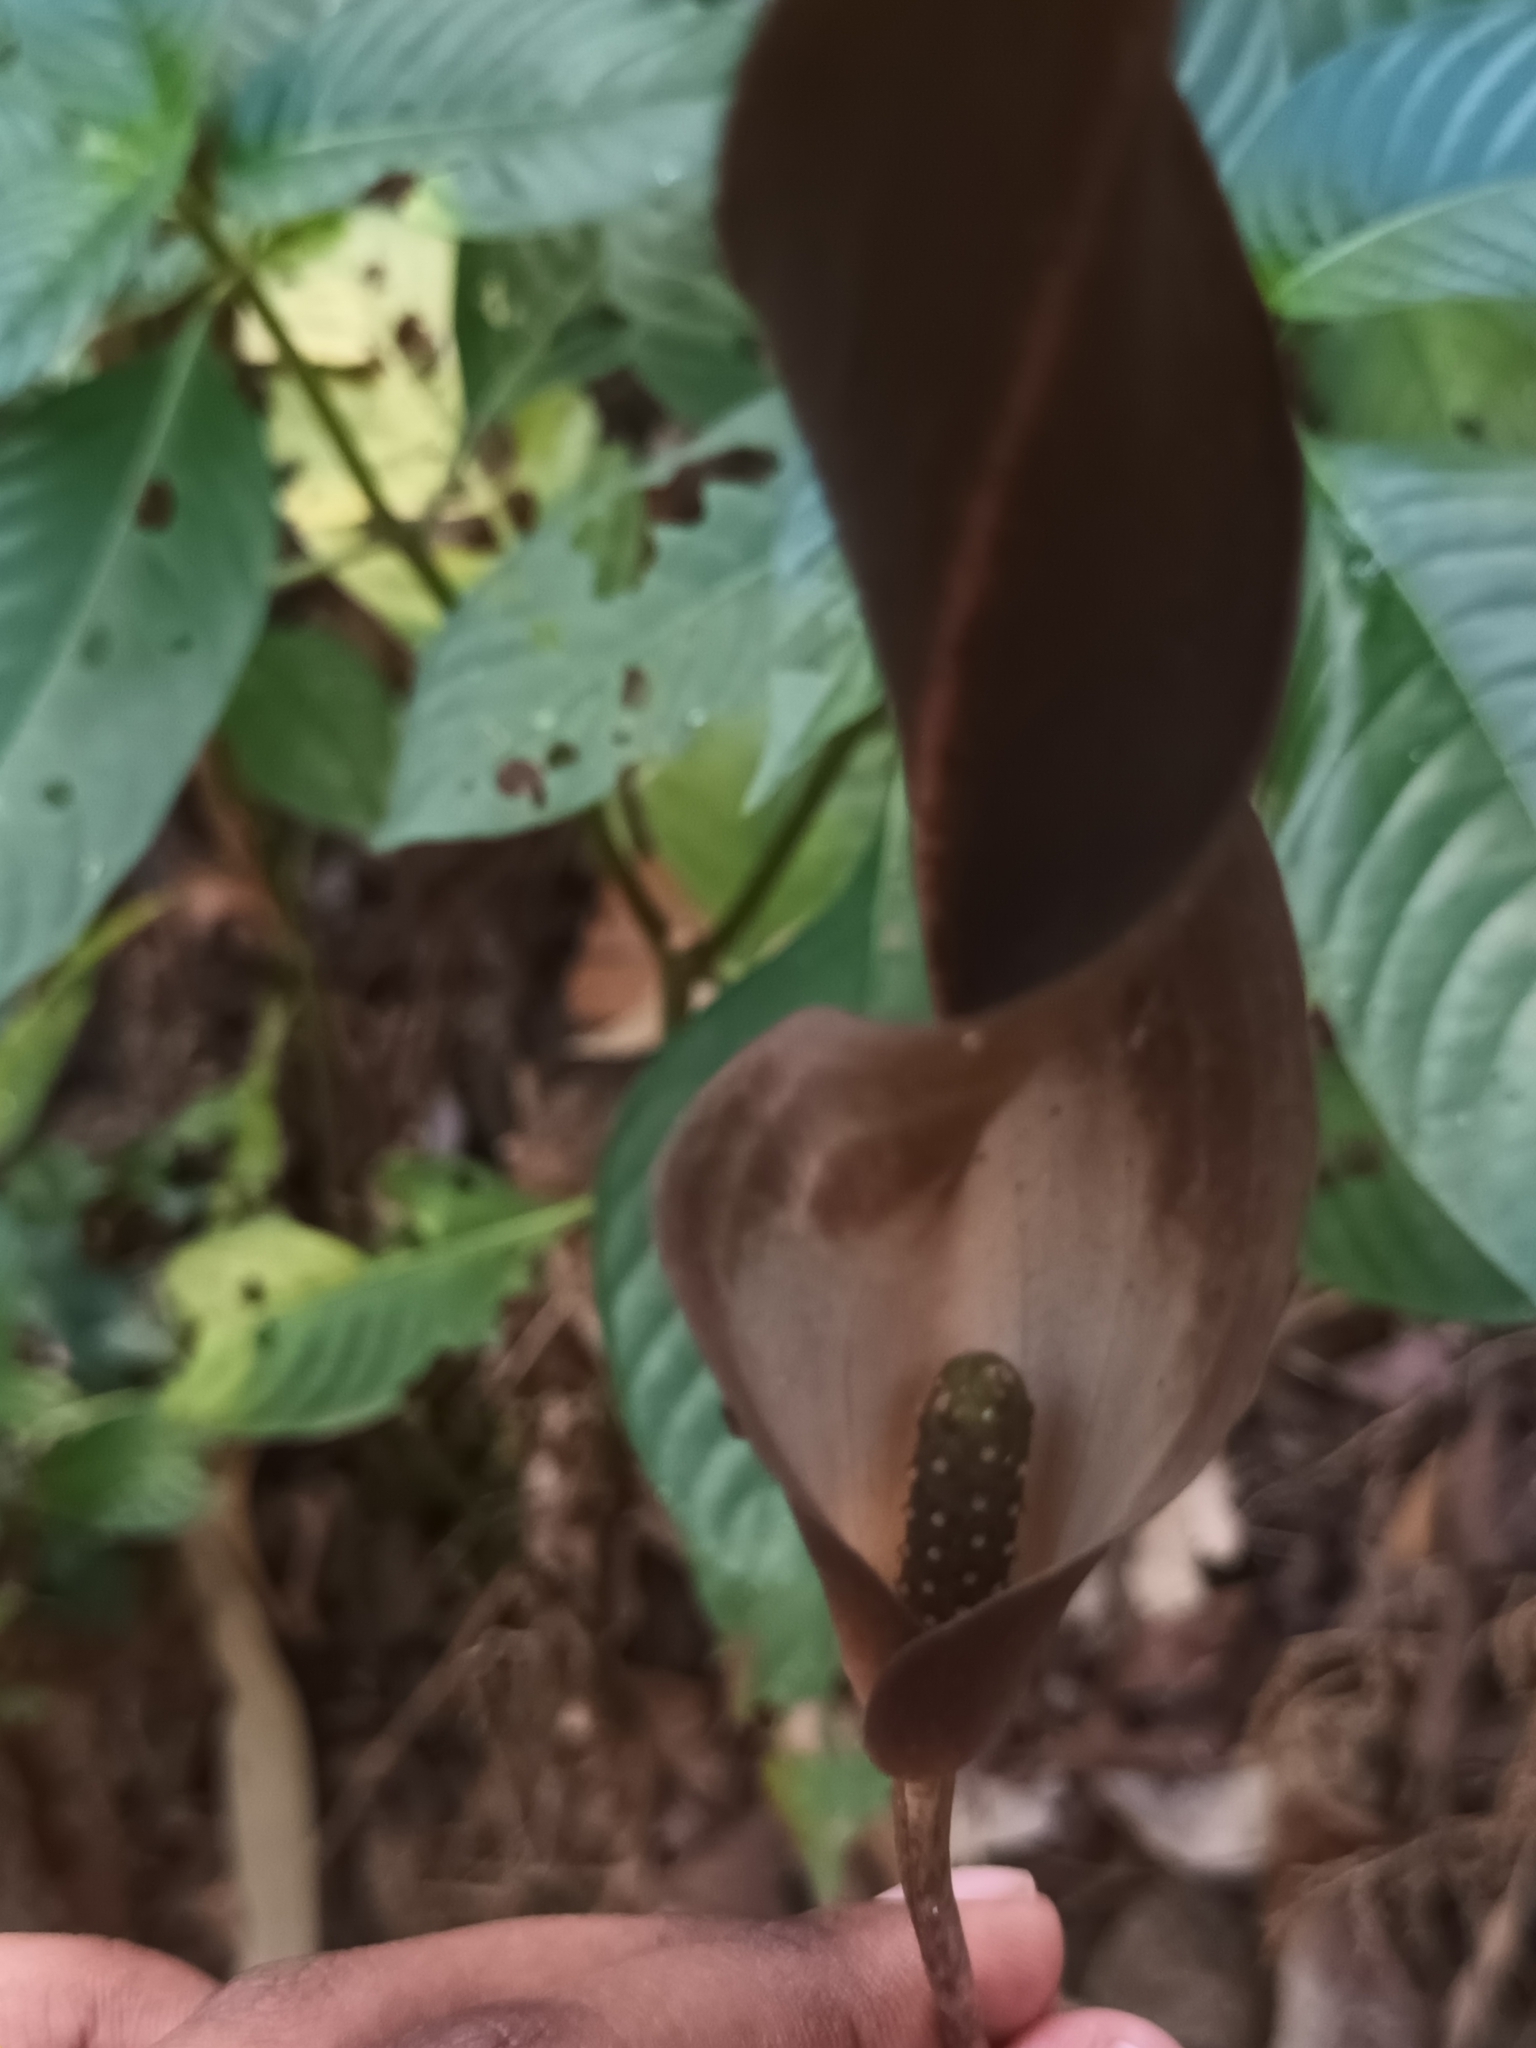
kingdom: Plantae
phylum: Tracheophyta
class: Liliopsida
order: Alismatales
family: Araceae
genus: Anaphyllum
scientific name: Anaphyllum wightii
